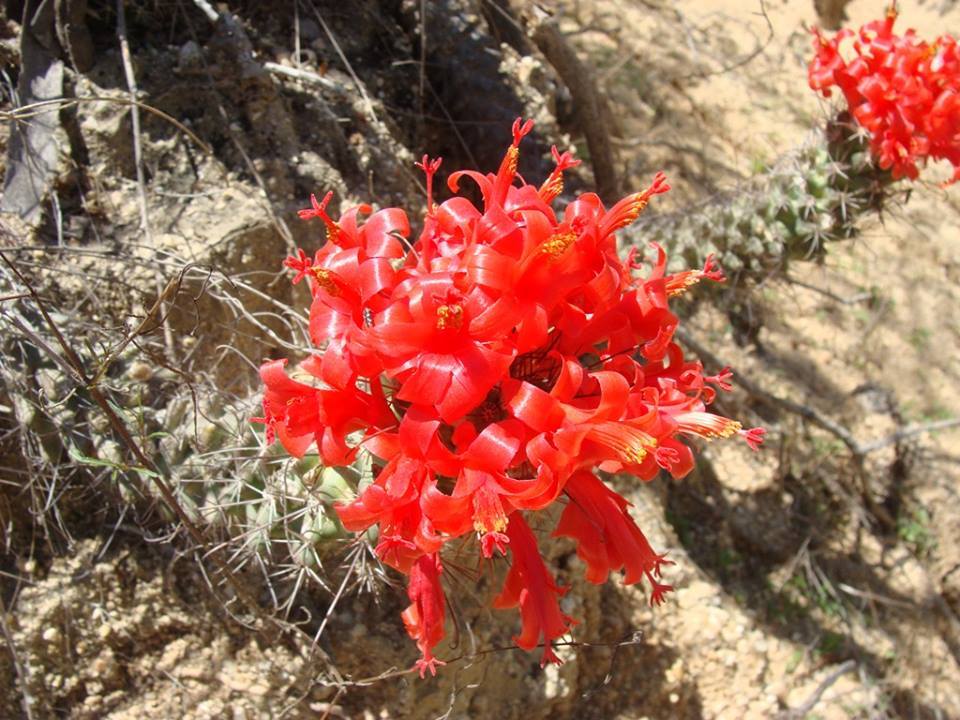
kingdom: Plantae
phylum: Tracheophyta
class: Magnoliopsida
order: Caryophyllales
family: Cactaceae
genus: Cochemiea
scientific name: Cochemiea poselgeri
